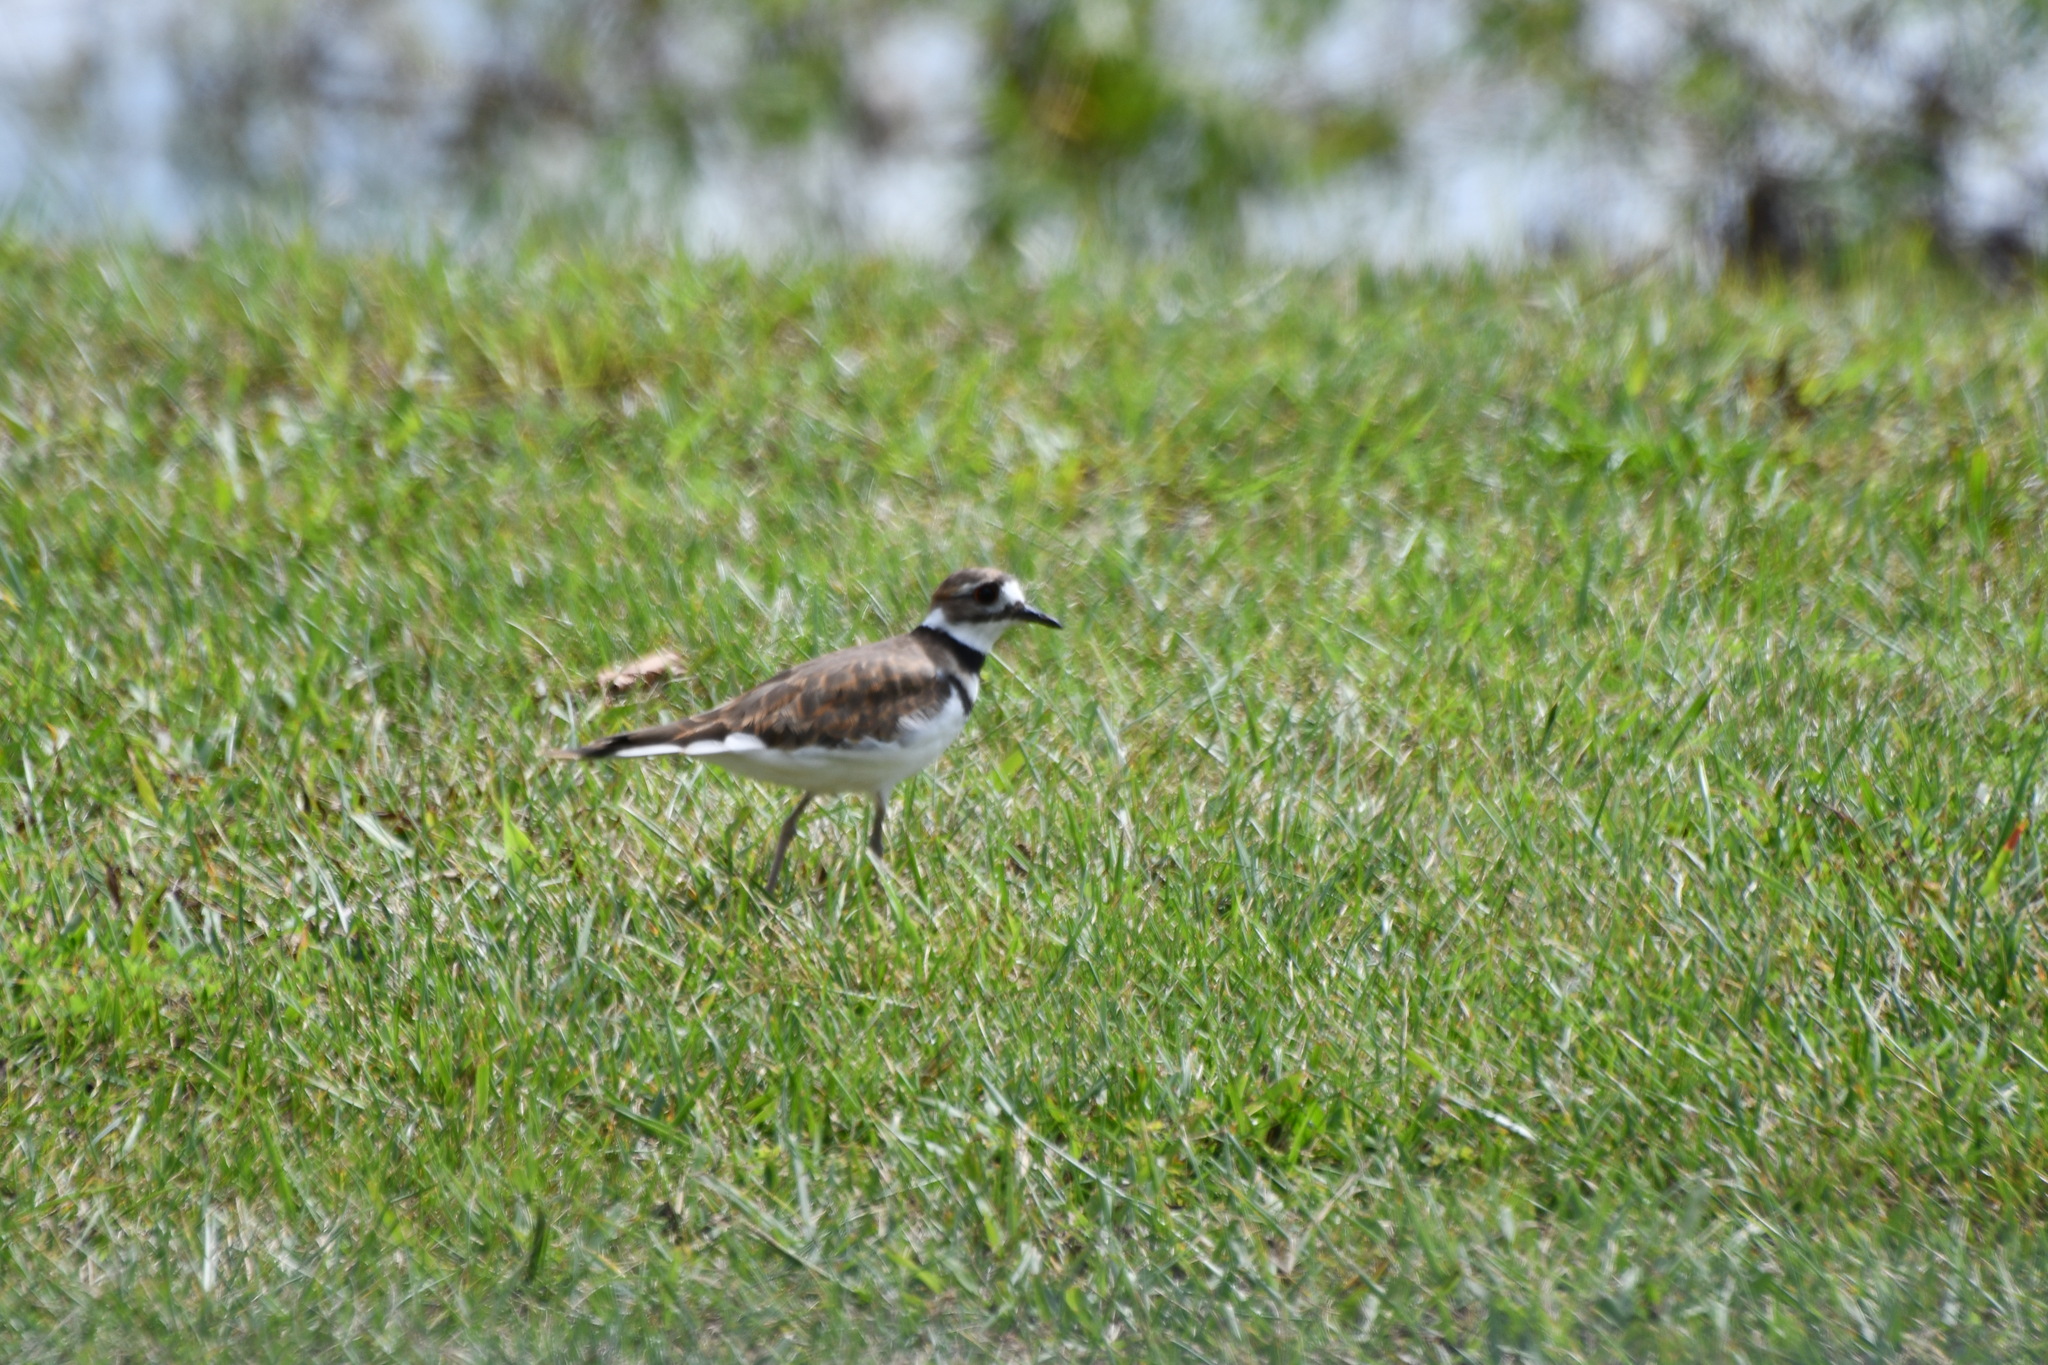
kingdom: Animalia
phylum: Chordata
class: Aves
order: Charadriiformes
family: Charadriidae
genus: Charadrius
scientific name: Charadrius vociferus
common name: Killdeer
